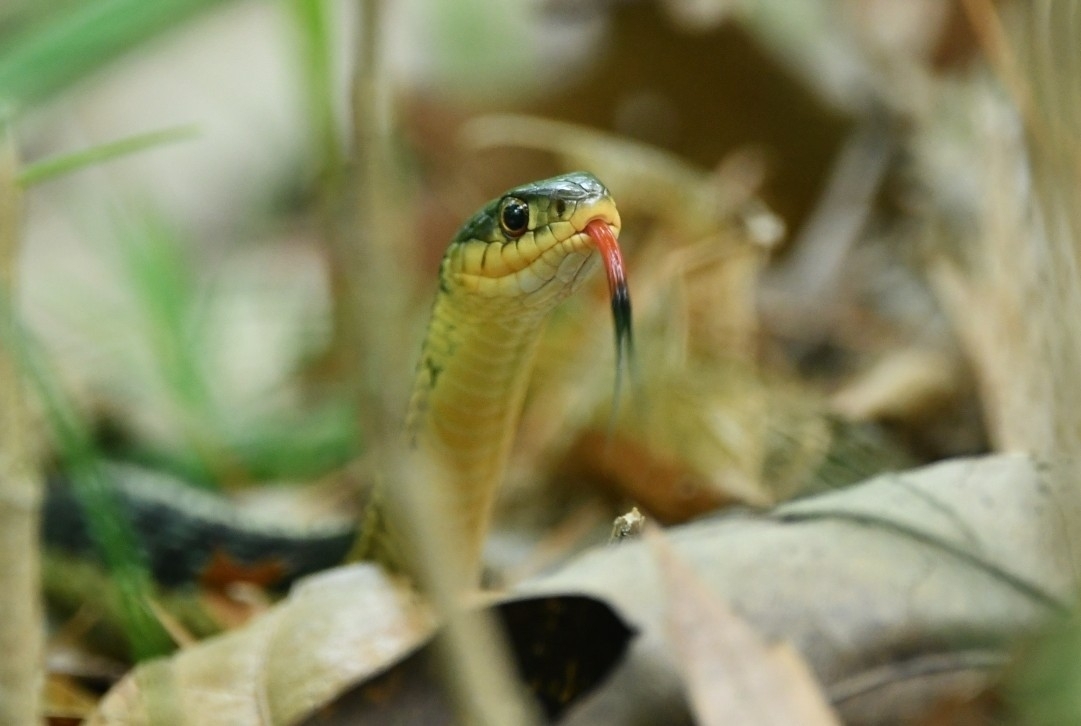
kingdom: Animalia
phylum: Chordata
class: Squamata
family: Colubridae
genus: Thamnophis
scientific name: Thamnophis sirtalis
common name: Common garter snake
